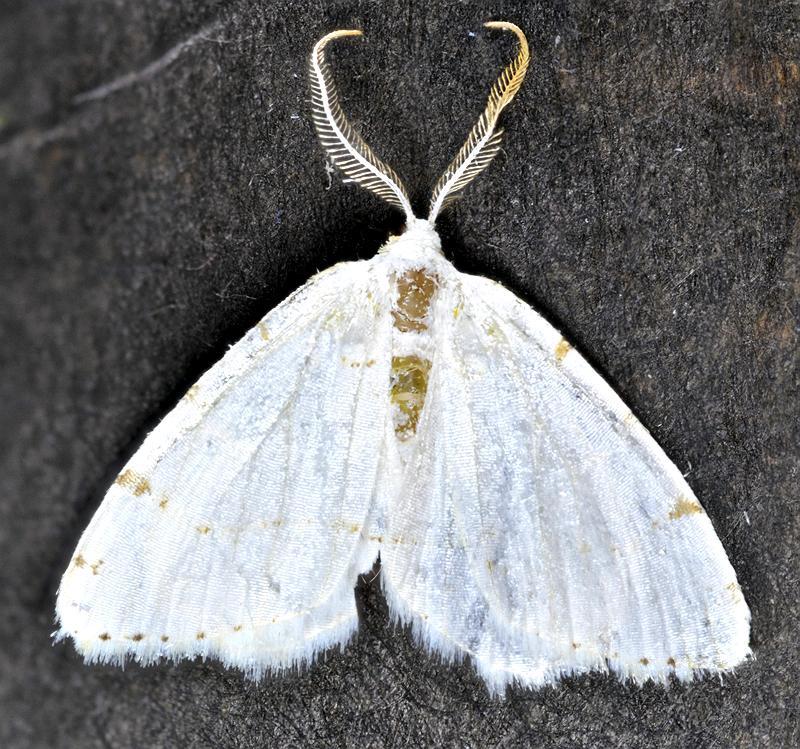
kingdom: Animalia
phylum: Arthropoda
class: Insecta
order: Lepidoptera
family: Geometridae
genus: Macaria
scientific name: Macaria pustularia
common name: Lesser maple spanworm moth
